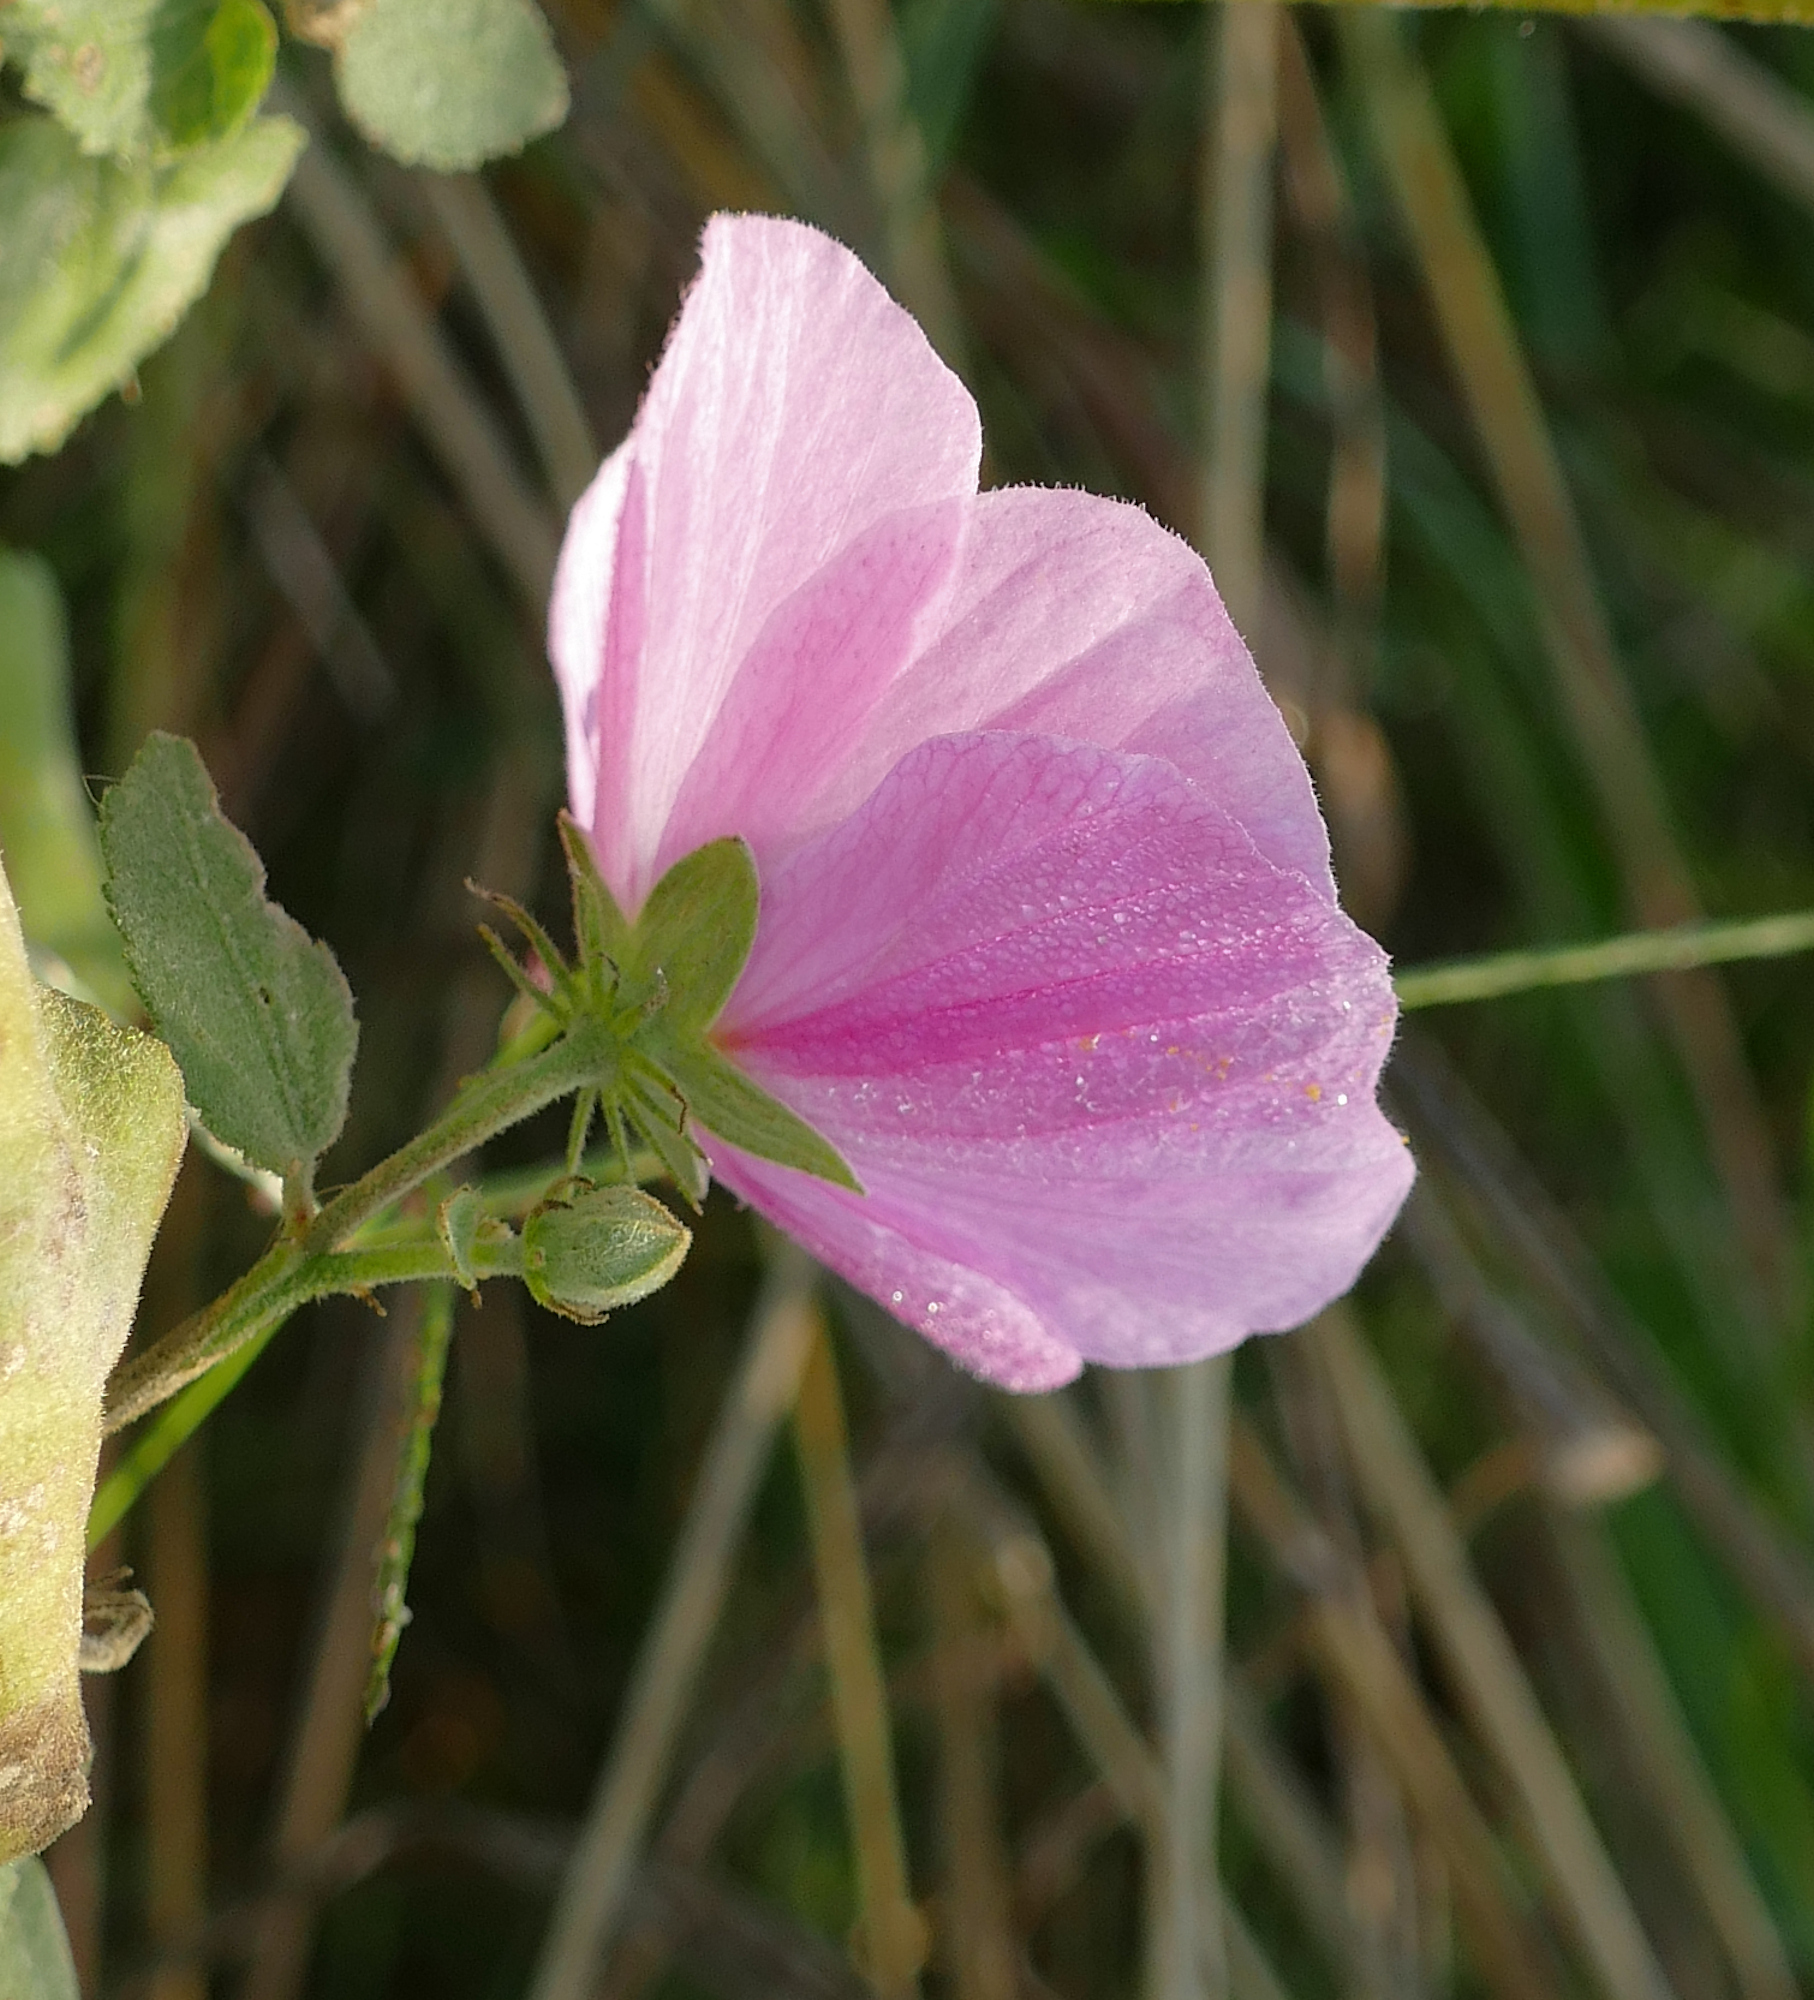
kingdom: Plantae
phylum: Tracheophyta
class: Magnoliopsida
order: Malvales
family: Malvaceae
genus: Kosteletzkya
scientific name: Kosteletzkya pentacarpos
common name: Virginia saltmarsh mallow
